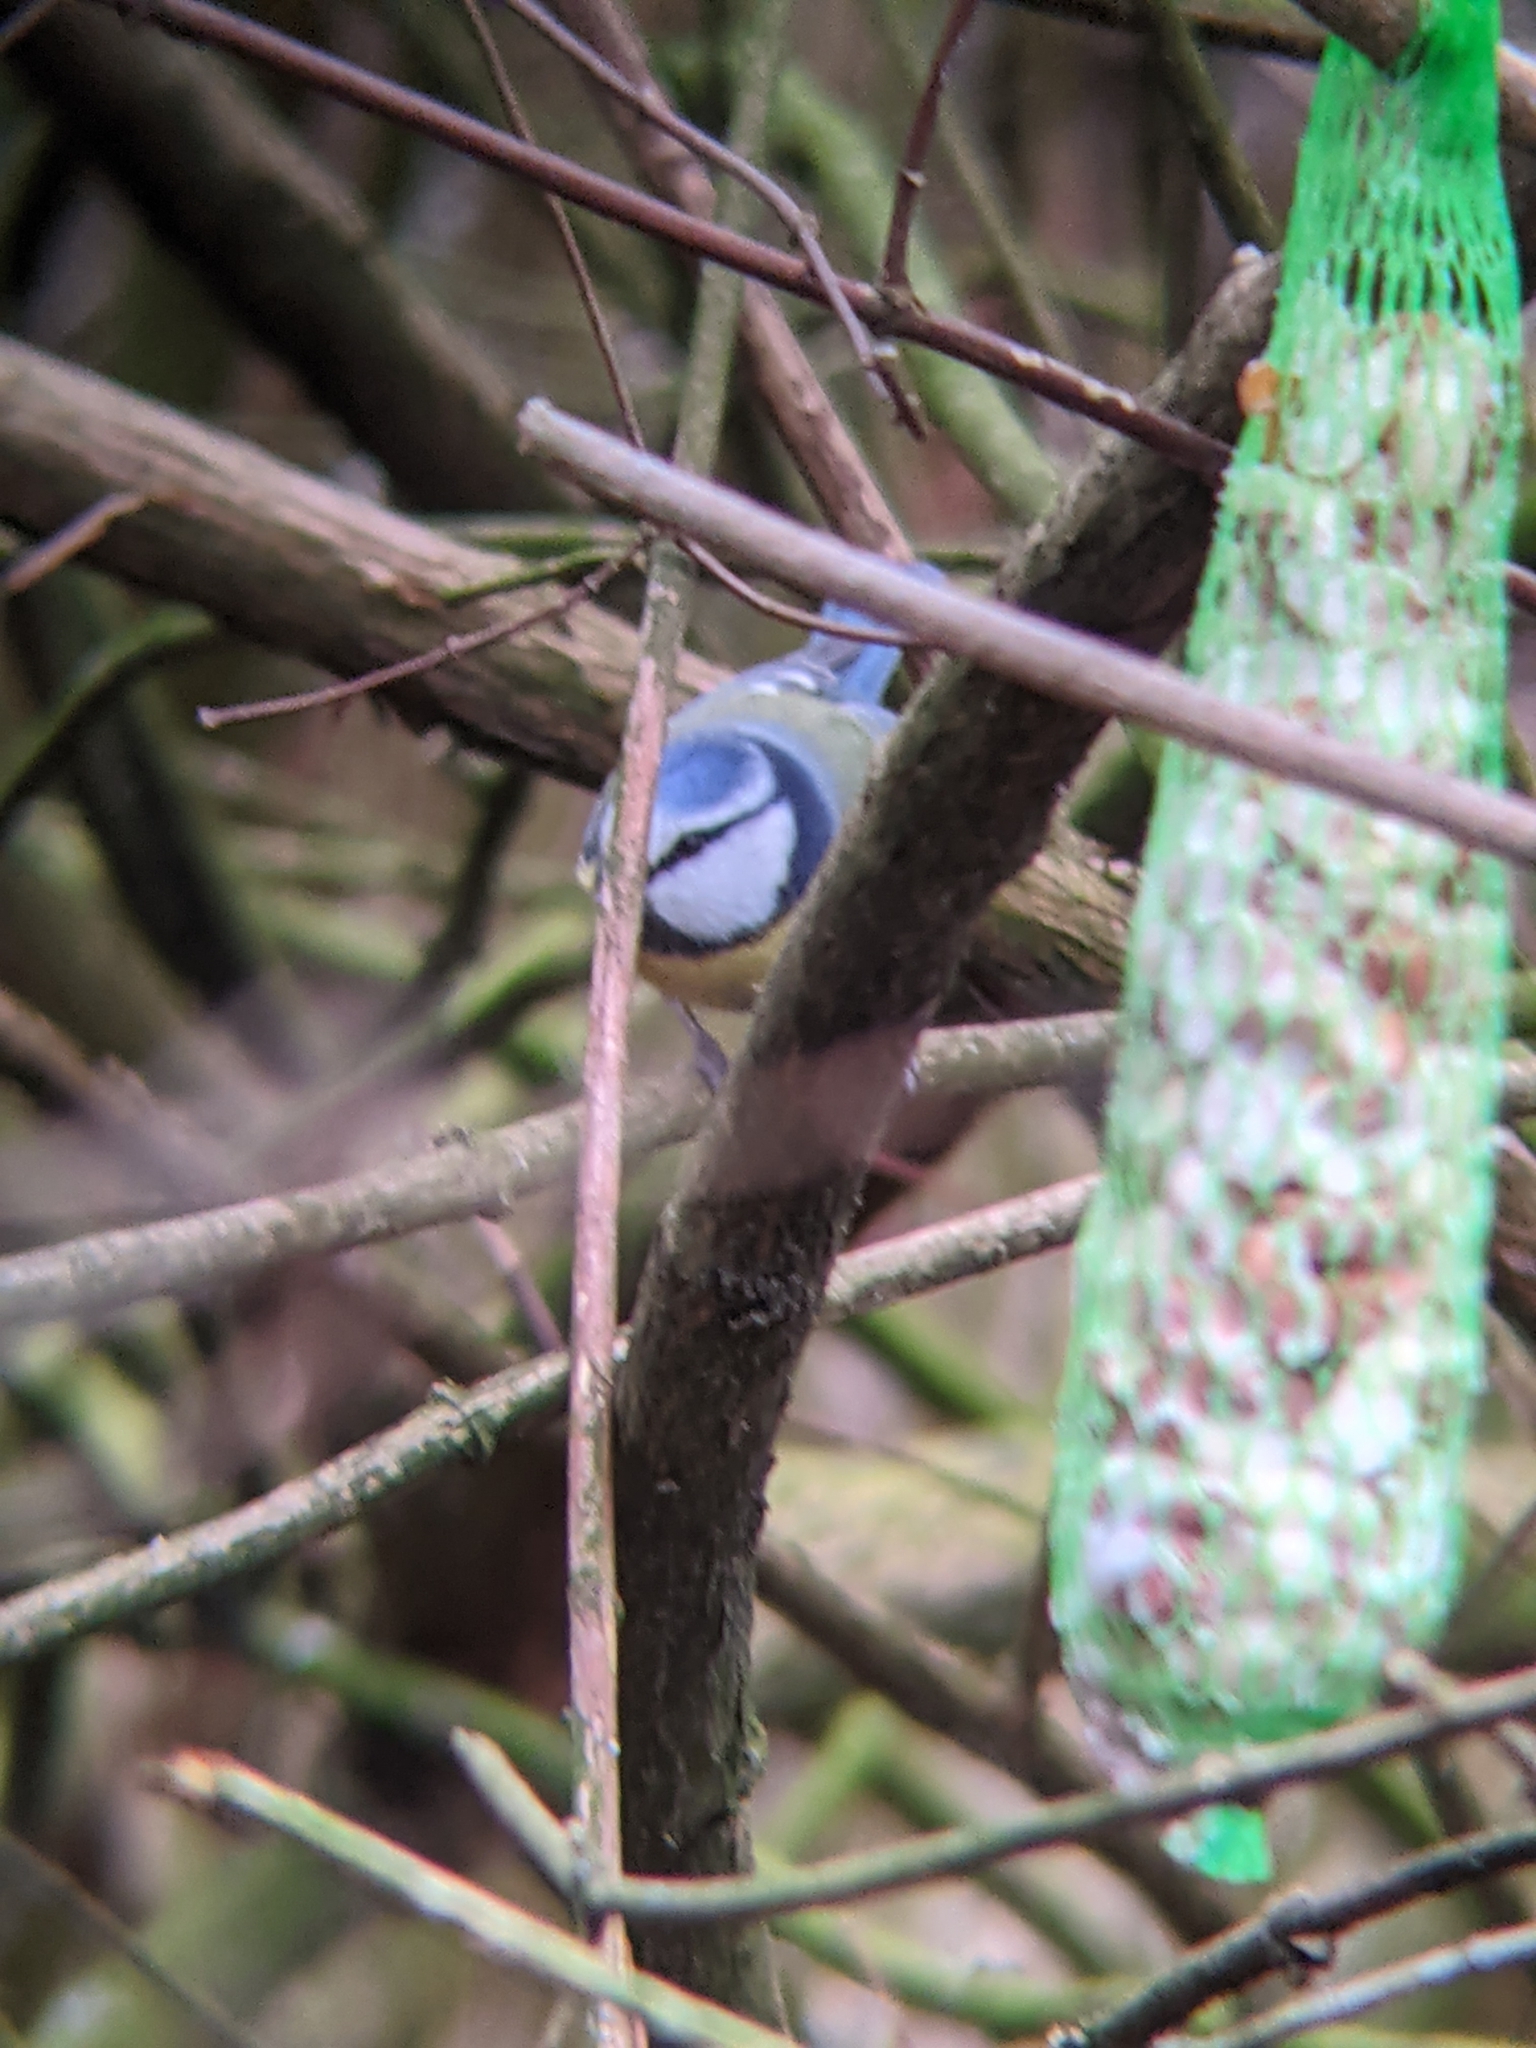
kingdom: Animalia
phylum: Chordata
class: Aves
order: Passeriformes
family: Paridae
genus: Cyanistes
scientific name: Cyanistes caeruleus
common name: Eurasian blue tit
